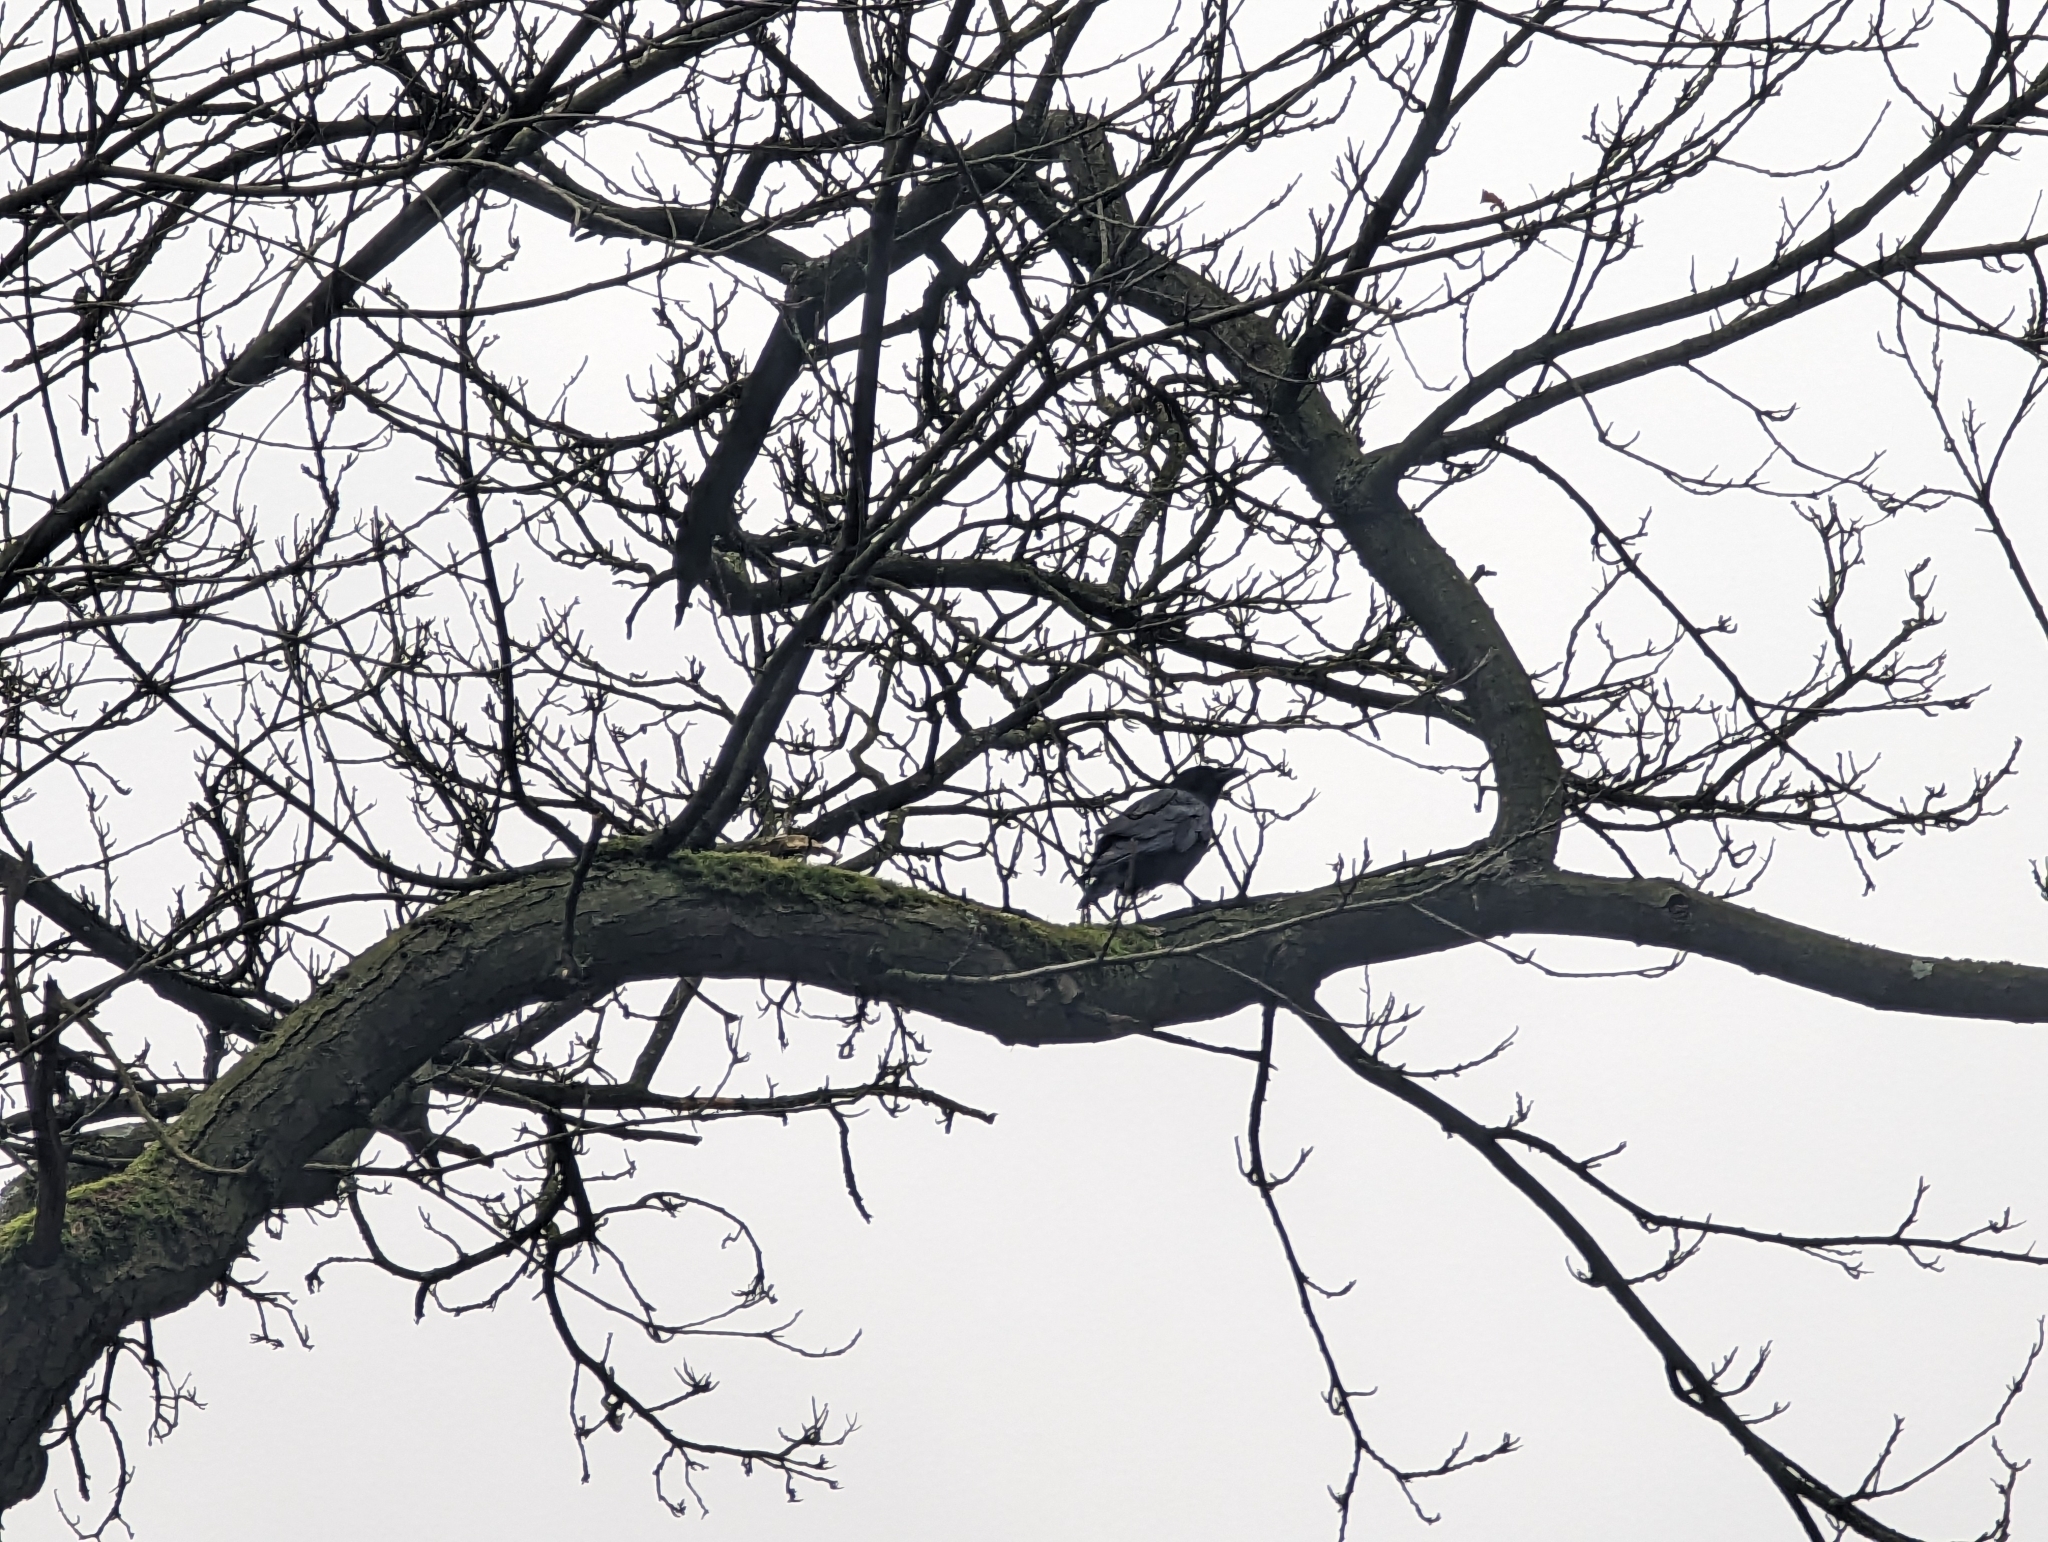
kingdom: Animalia
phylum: Chordata
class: Aves
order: Passeriformes
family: Corvidae
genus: Corvus
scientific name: Corvus corone
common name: Carrion crow
